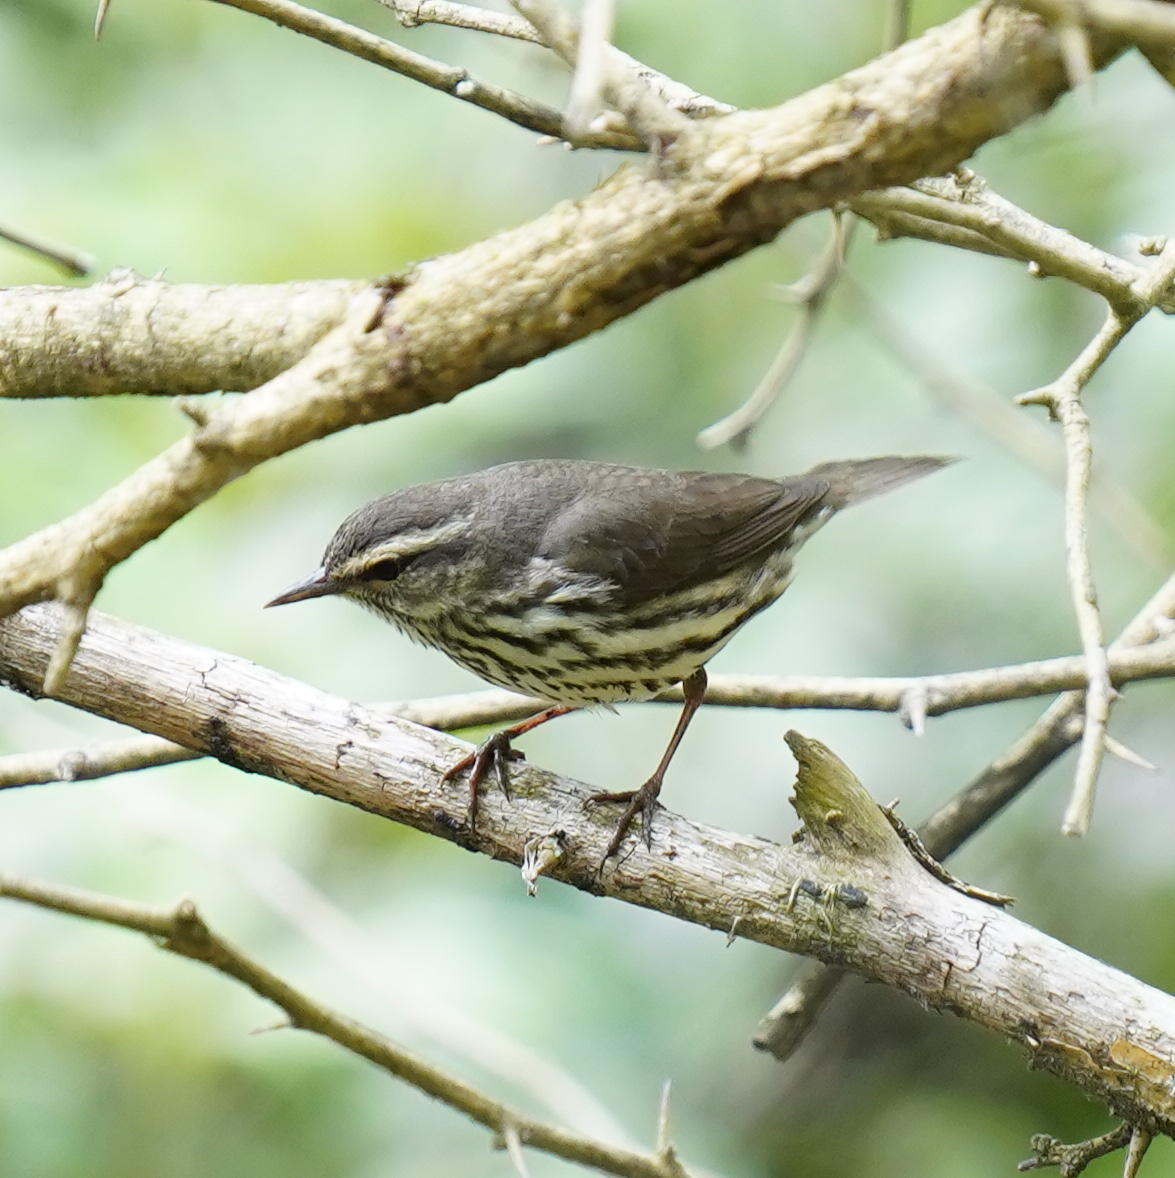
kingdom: Animalia
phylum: Chordata
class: Aves
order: Passeriformes
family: Parulidae
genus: Parkesia
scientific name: Parkesia noveboracensis
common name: Northern waterthrush
